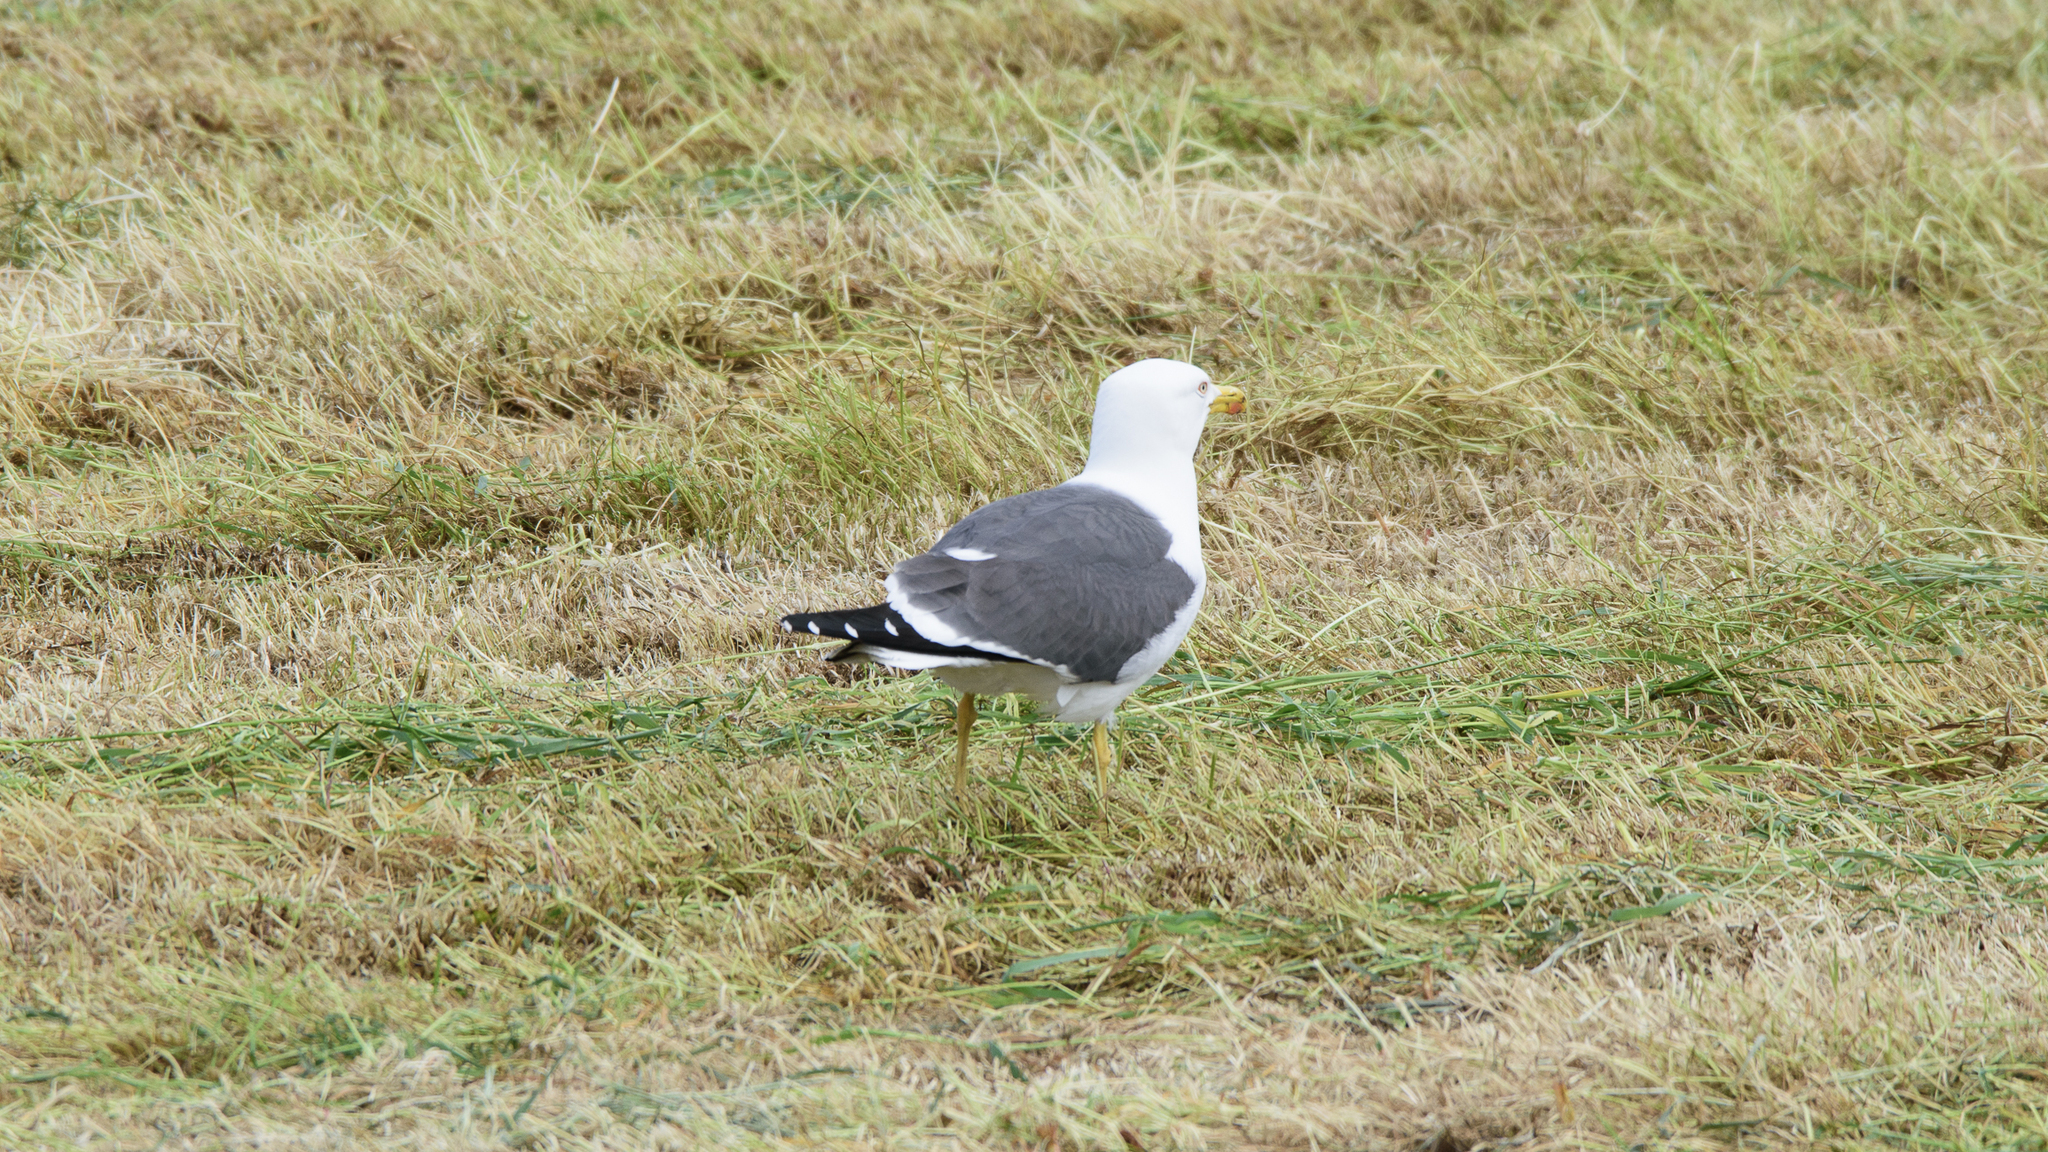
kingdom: Animalia
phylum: Chordata
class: Aves
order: Charadriiformes
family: Laridae
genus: Larus
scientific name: Larus fuscus
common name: Lesser black-backed gull
